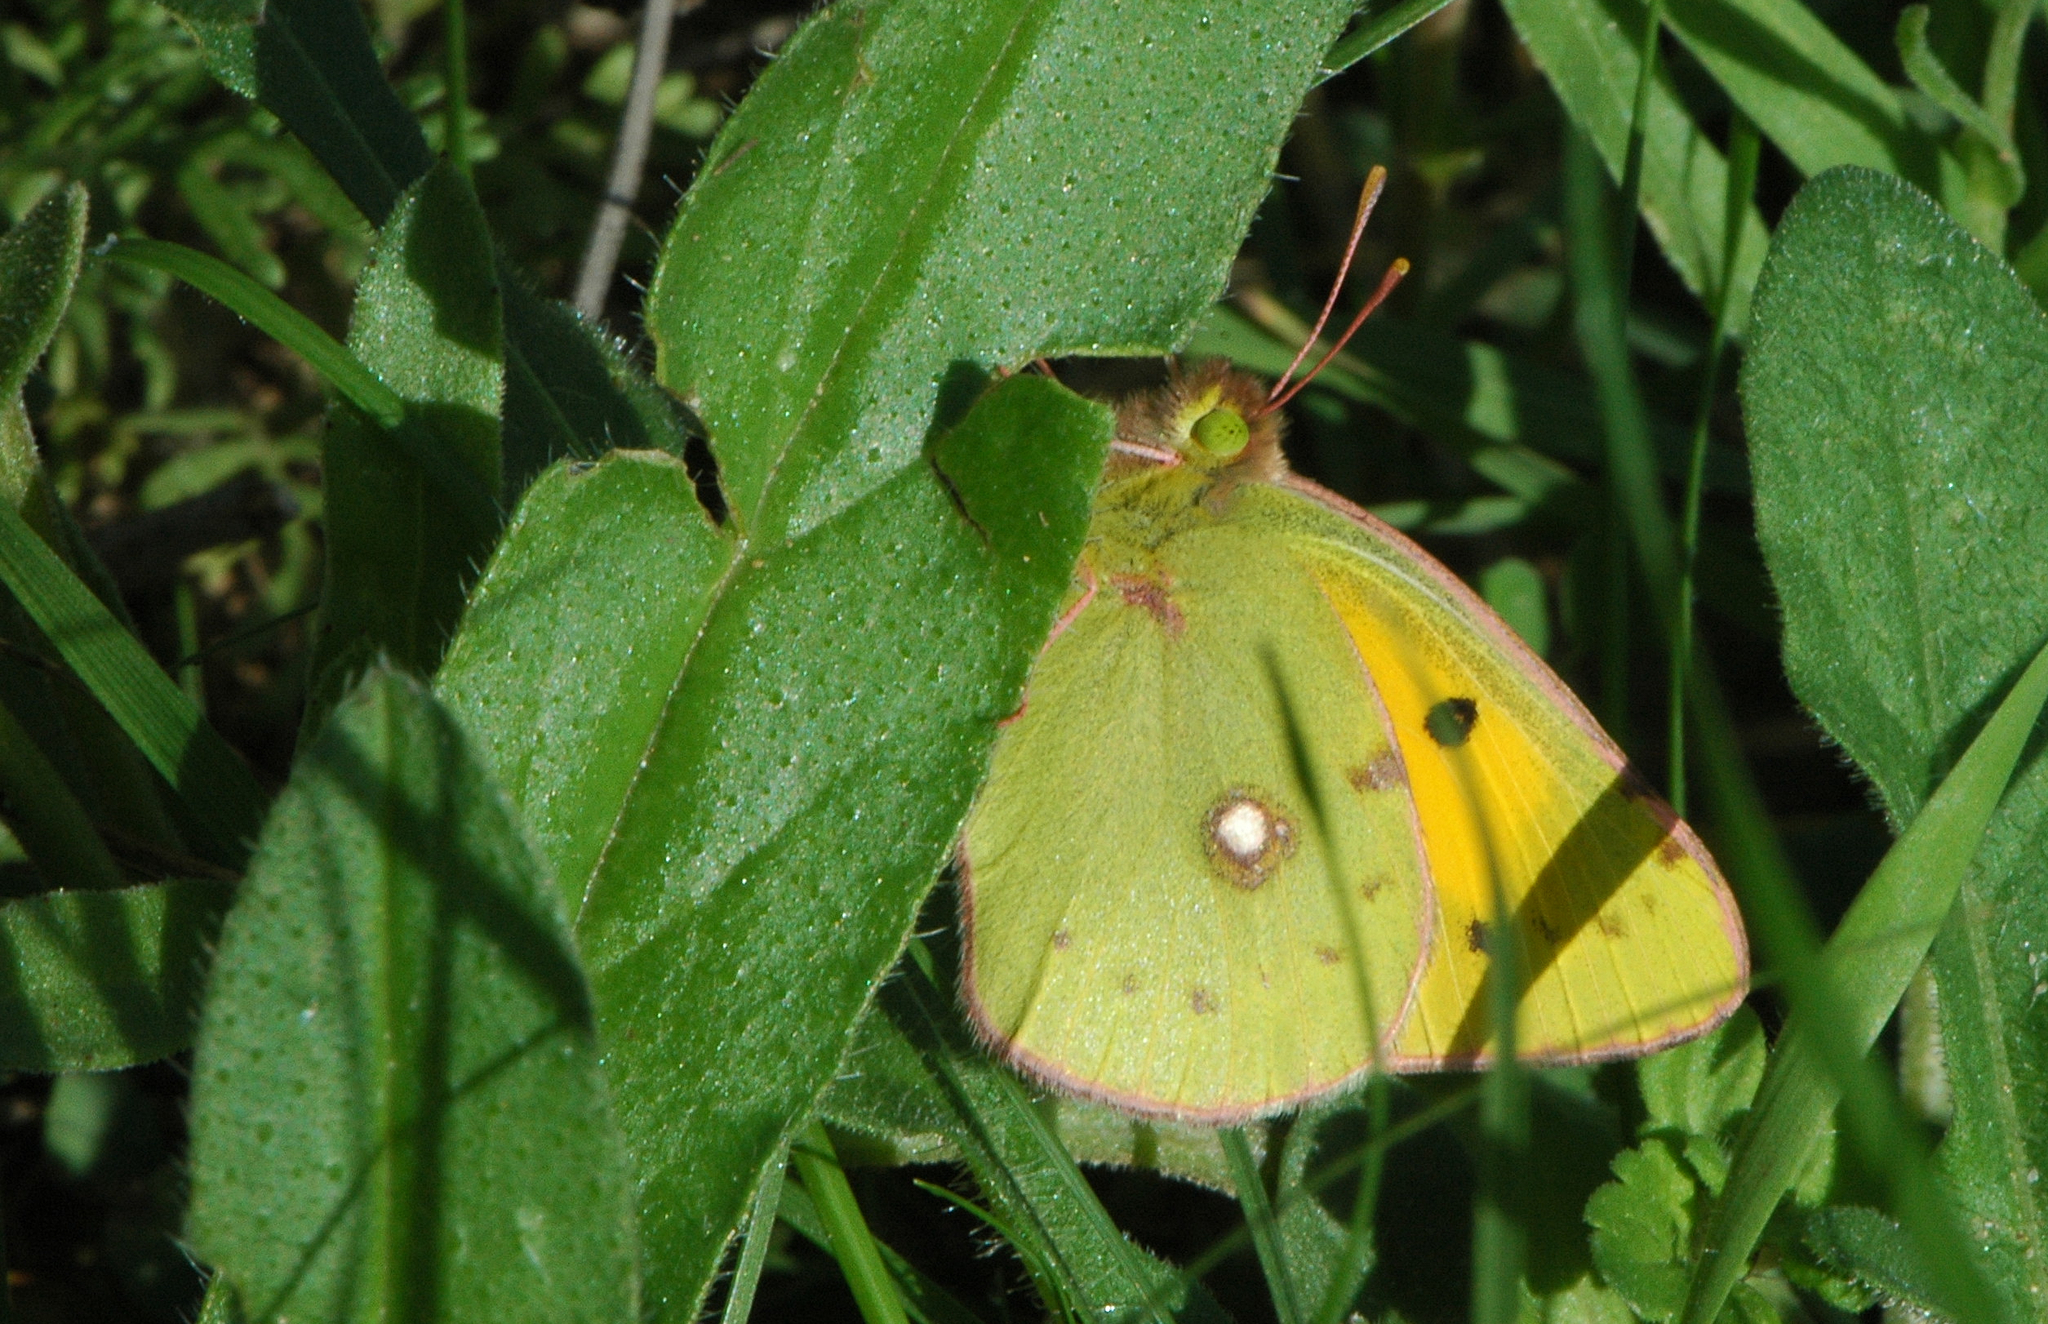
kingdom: Animalia
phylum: Arthropoda
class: Insecta
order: Lepidoptera
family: Pieridae
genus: Colias
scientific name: Colias croceus
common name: Clouded yellow
